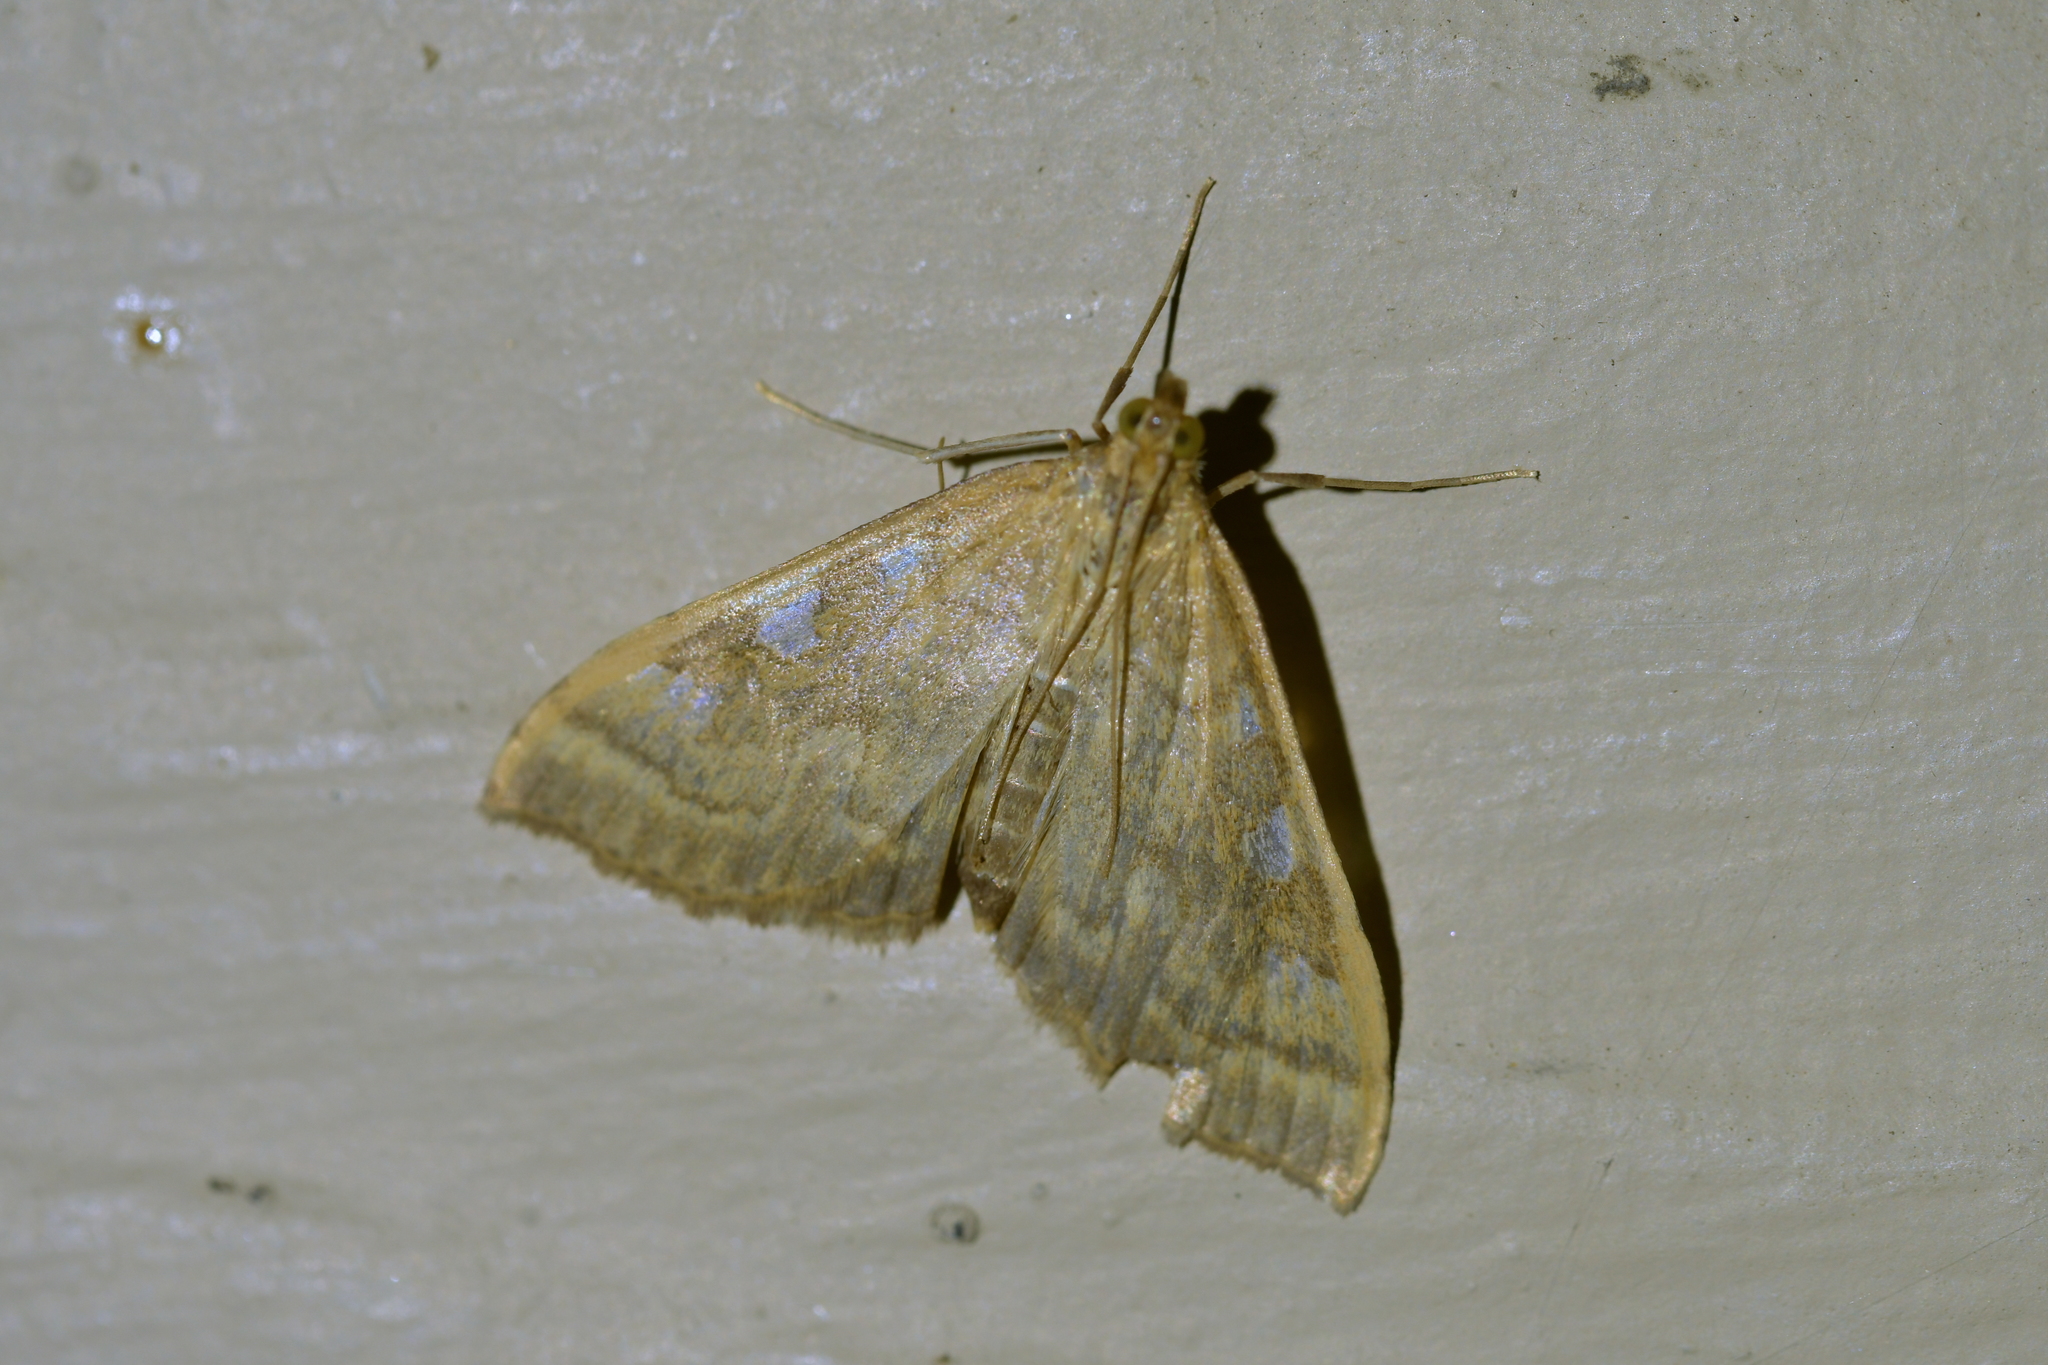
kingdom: Animalia
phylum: Arthropoda
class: Insecta
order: Lepidoptera
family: Crambidae
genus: Udea
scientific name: Udea Mnesictena marmarina
